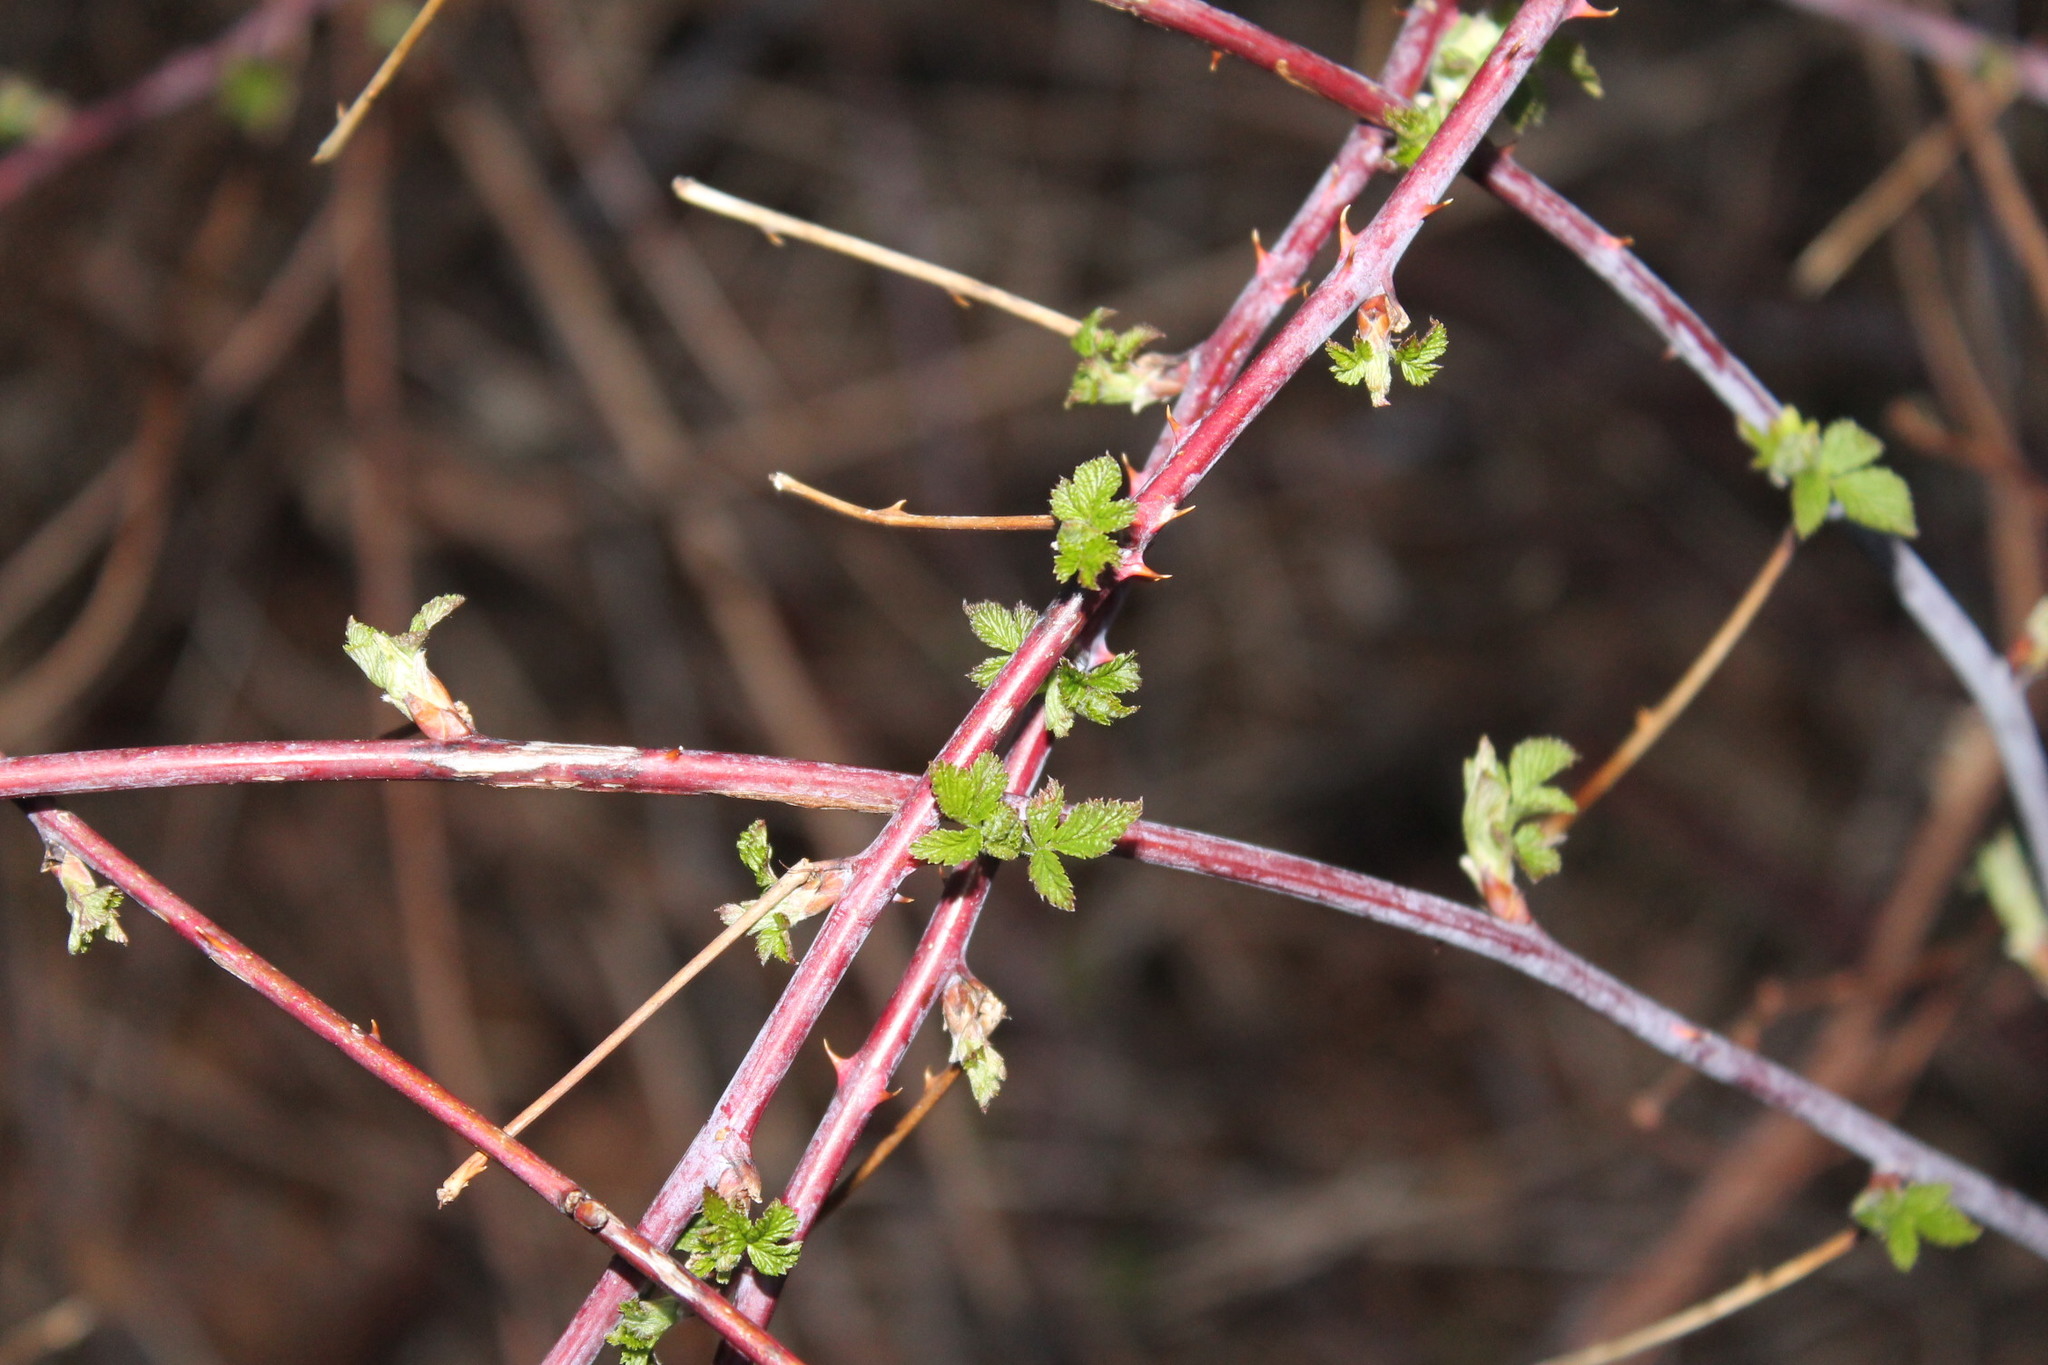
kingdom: Plantae
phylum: Tracheophyta
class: Magnoliopsida
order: Rosales
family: Rosaceae
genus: Rubus
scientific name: Rubus occidentalis
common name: Black raspberry
